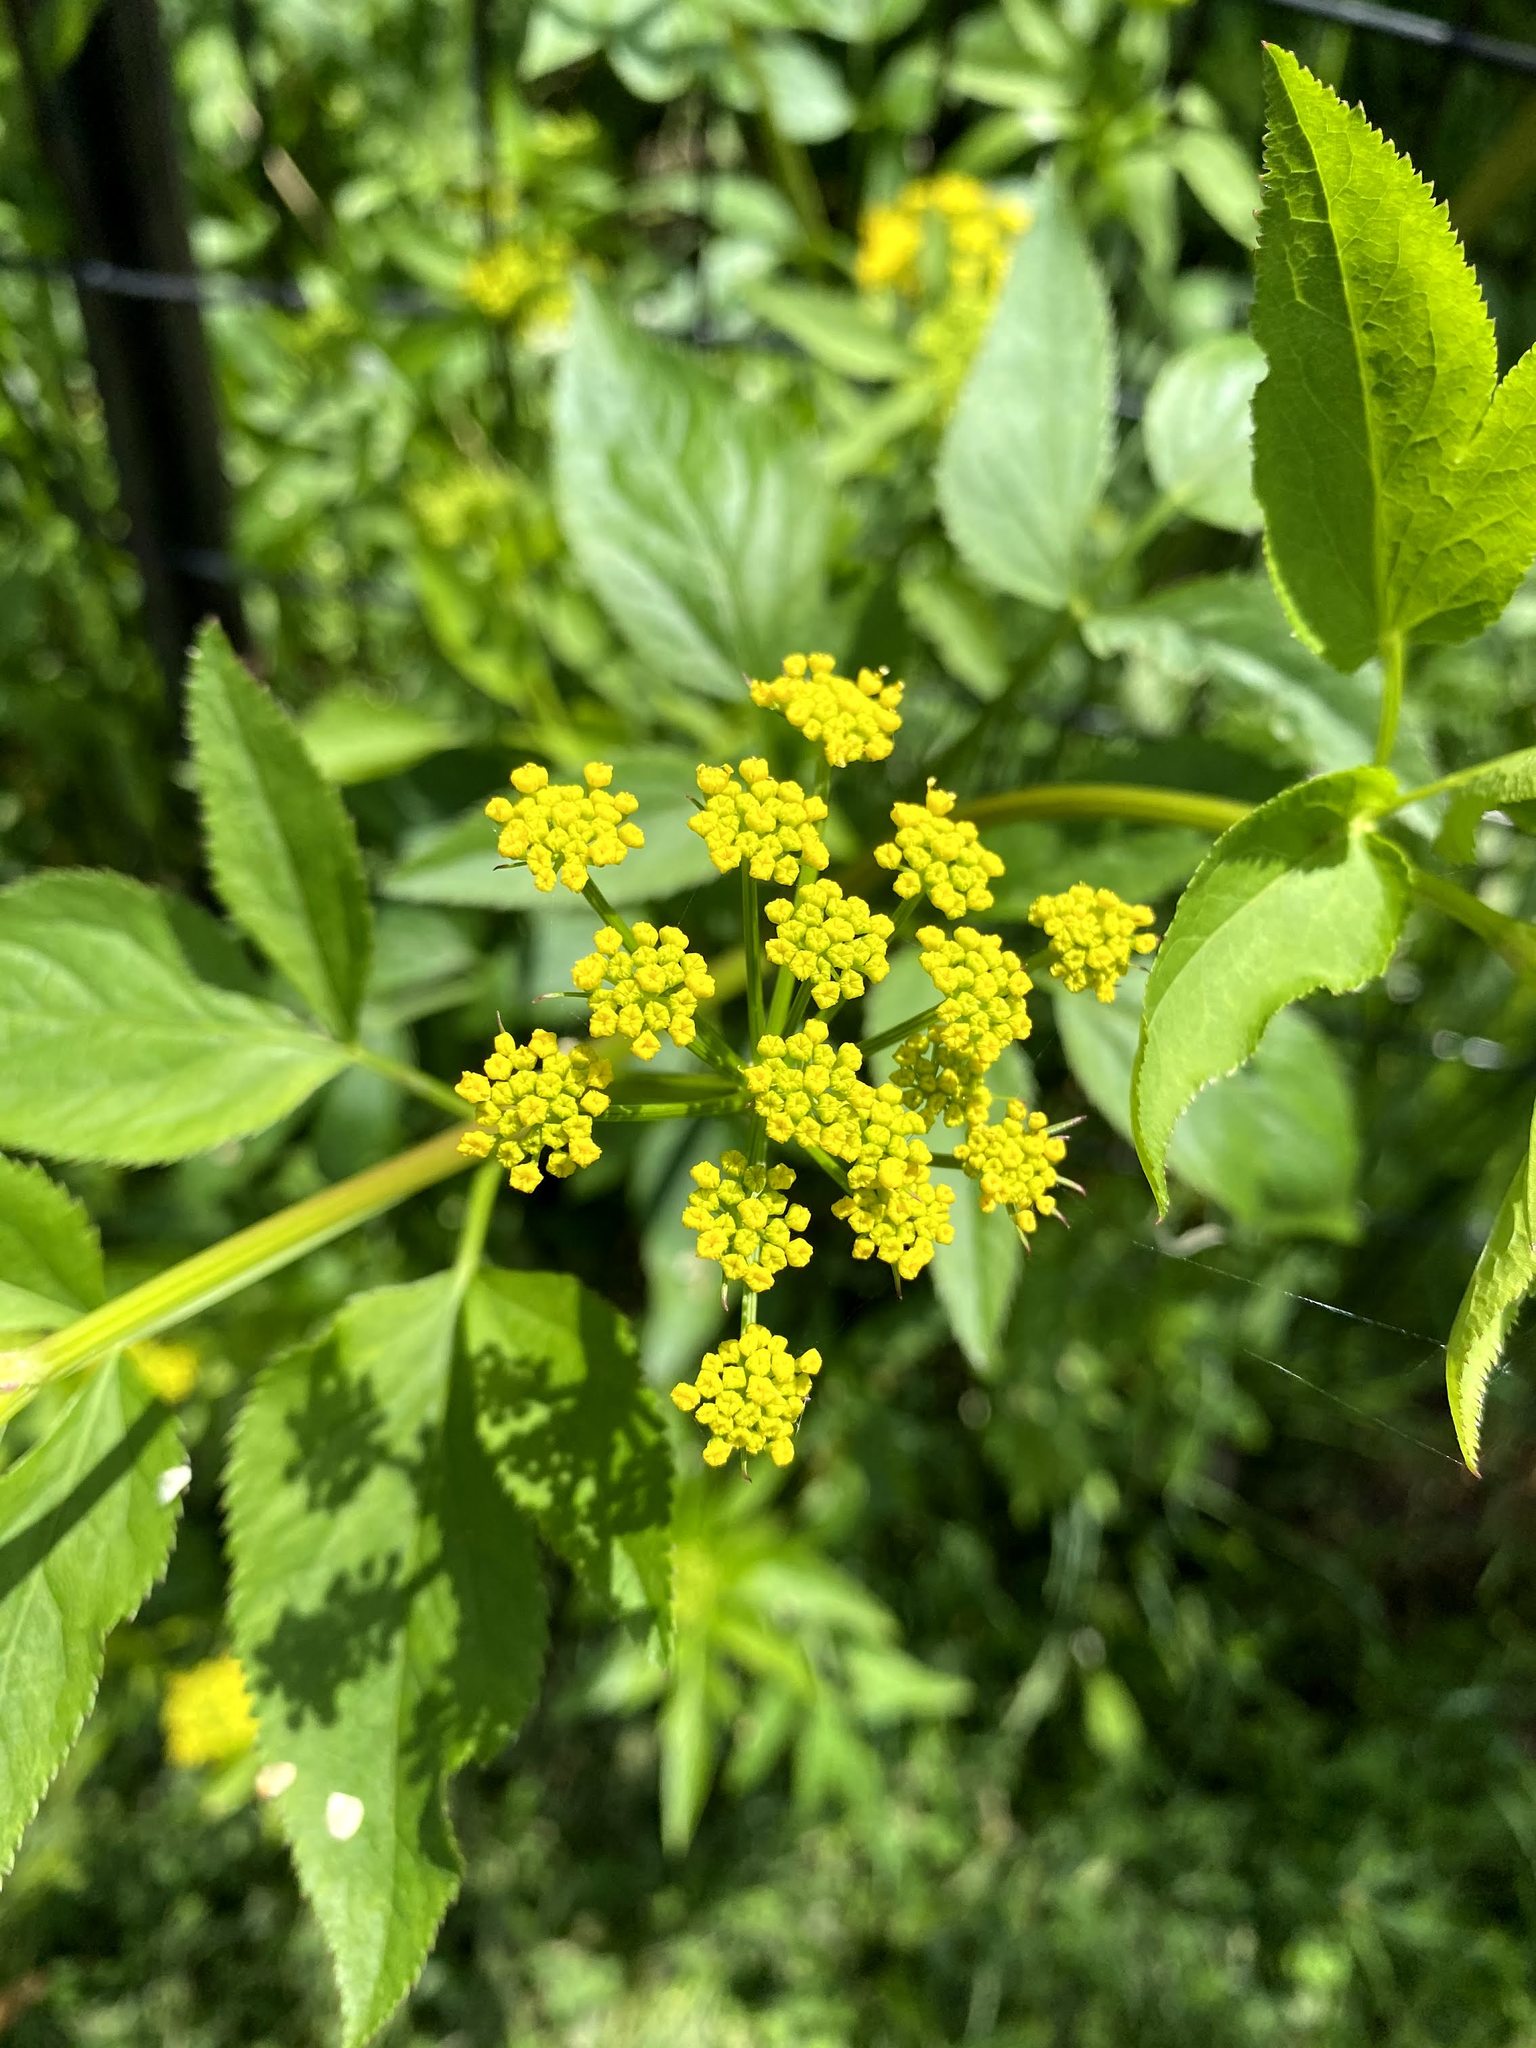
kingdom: Plantae
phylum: Tracheophyta
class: Magnoliopsida
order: Apiales
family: Apiaceae
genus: Zizia
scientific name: Zizia aurea
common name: Golden alexanders
